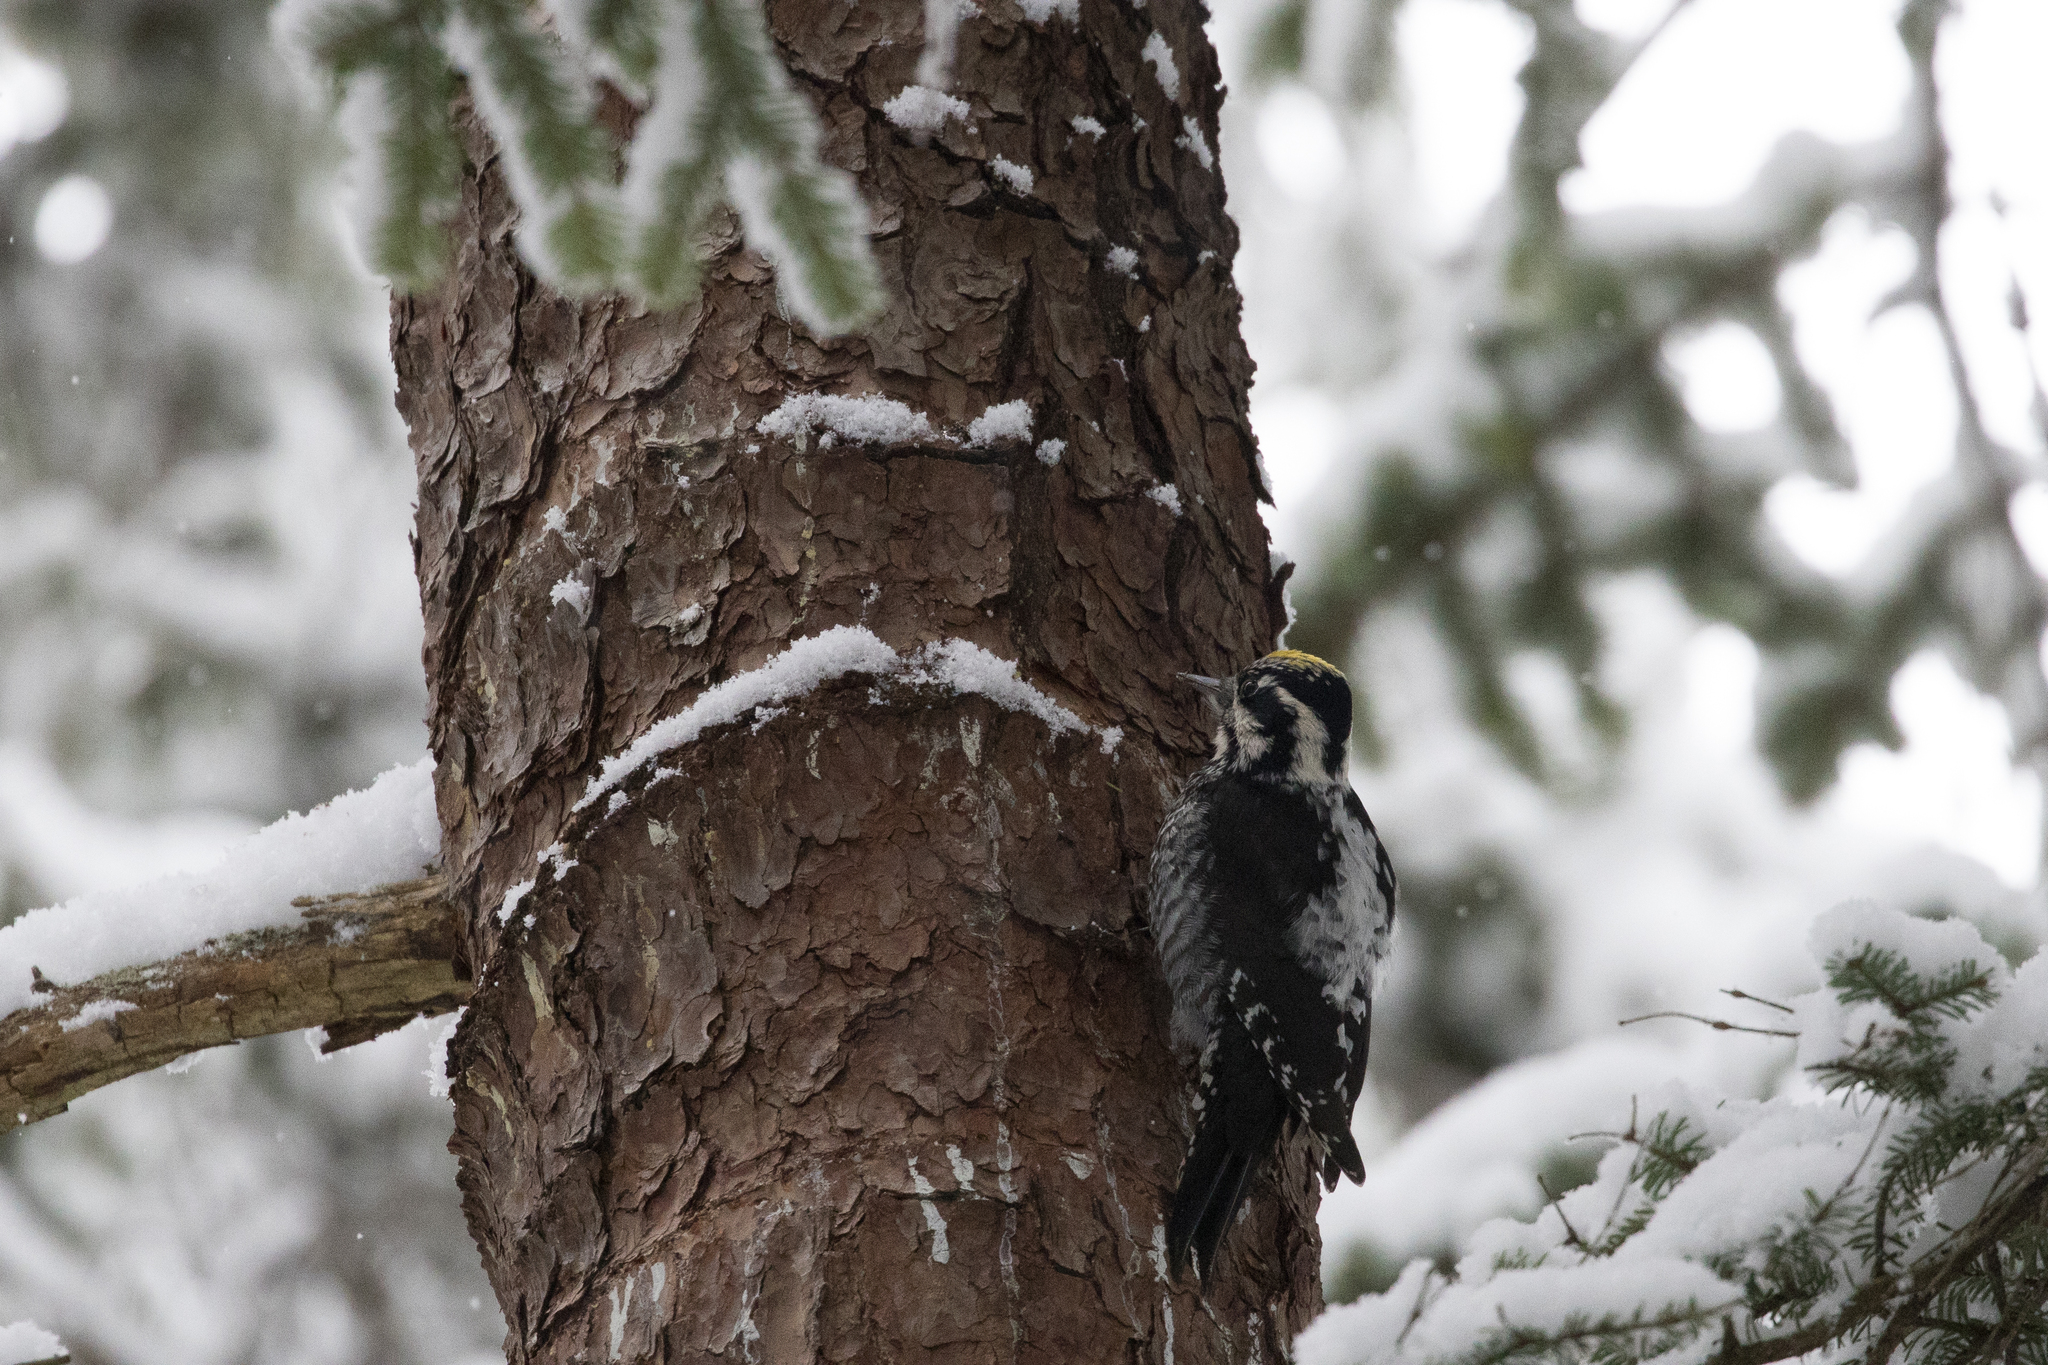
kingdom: Animalia
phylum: Chordata
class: Aves
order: Piciformes
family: Picidae
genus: Picoides
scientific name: Picoides tridactylus
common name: Eurasian three-toed woodpecker
